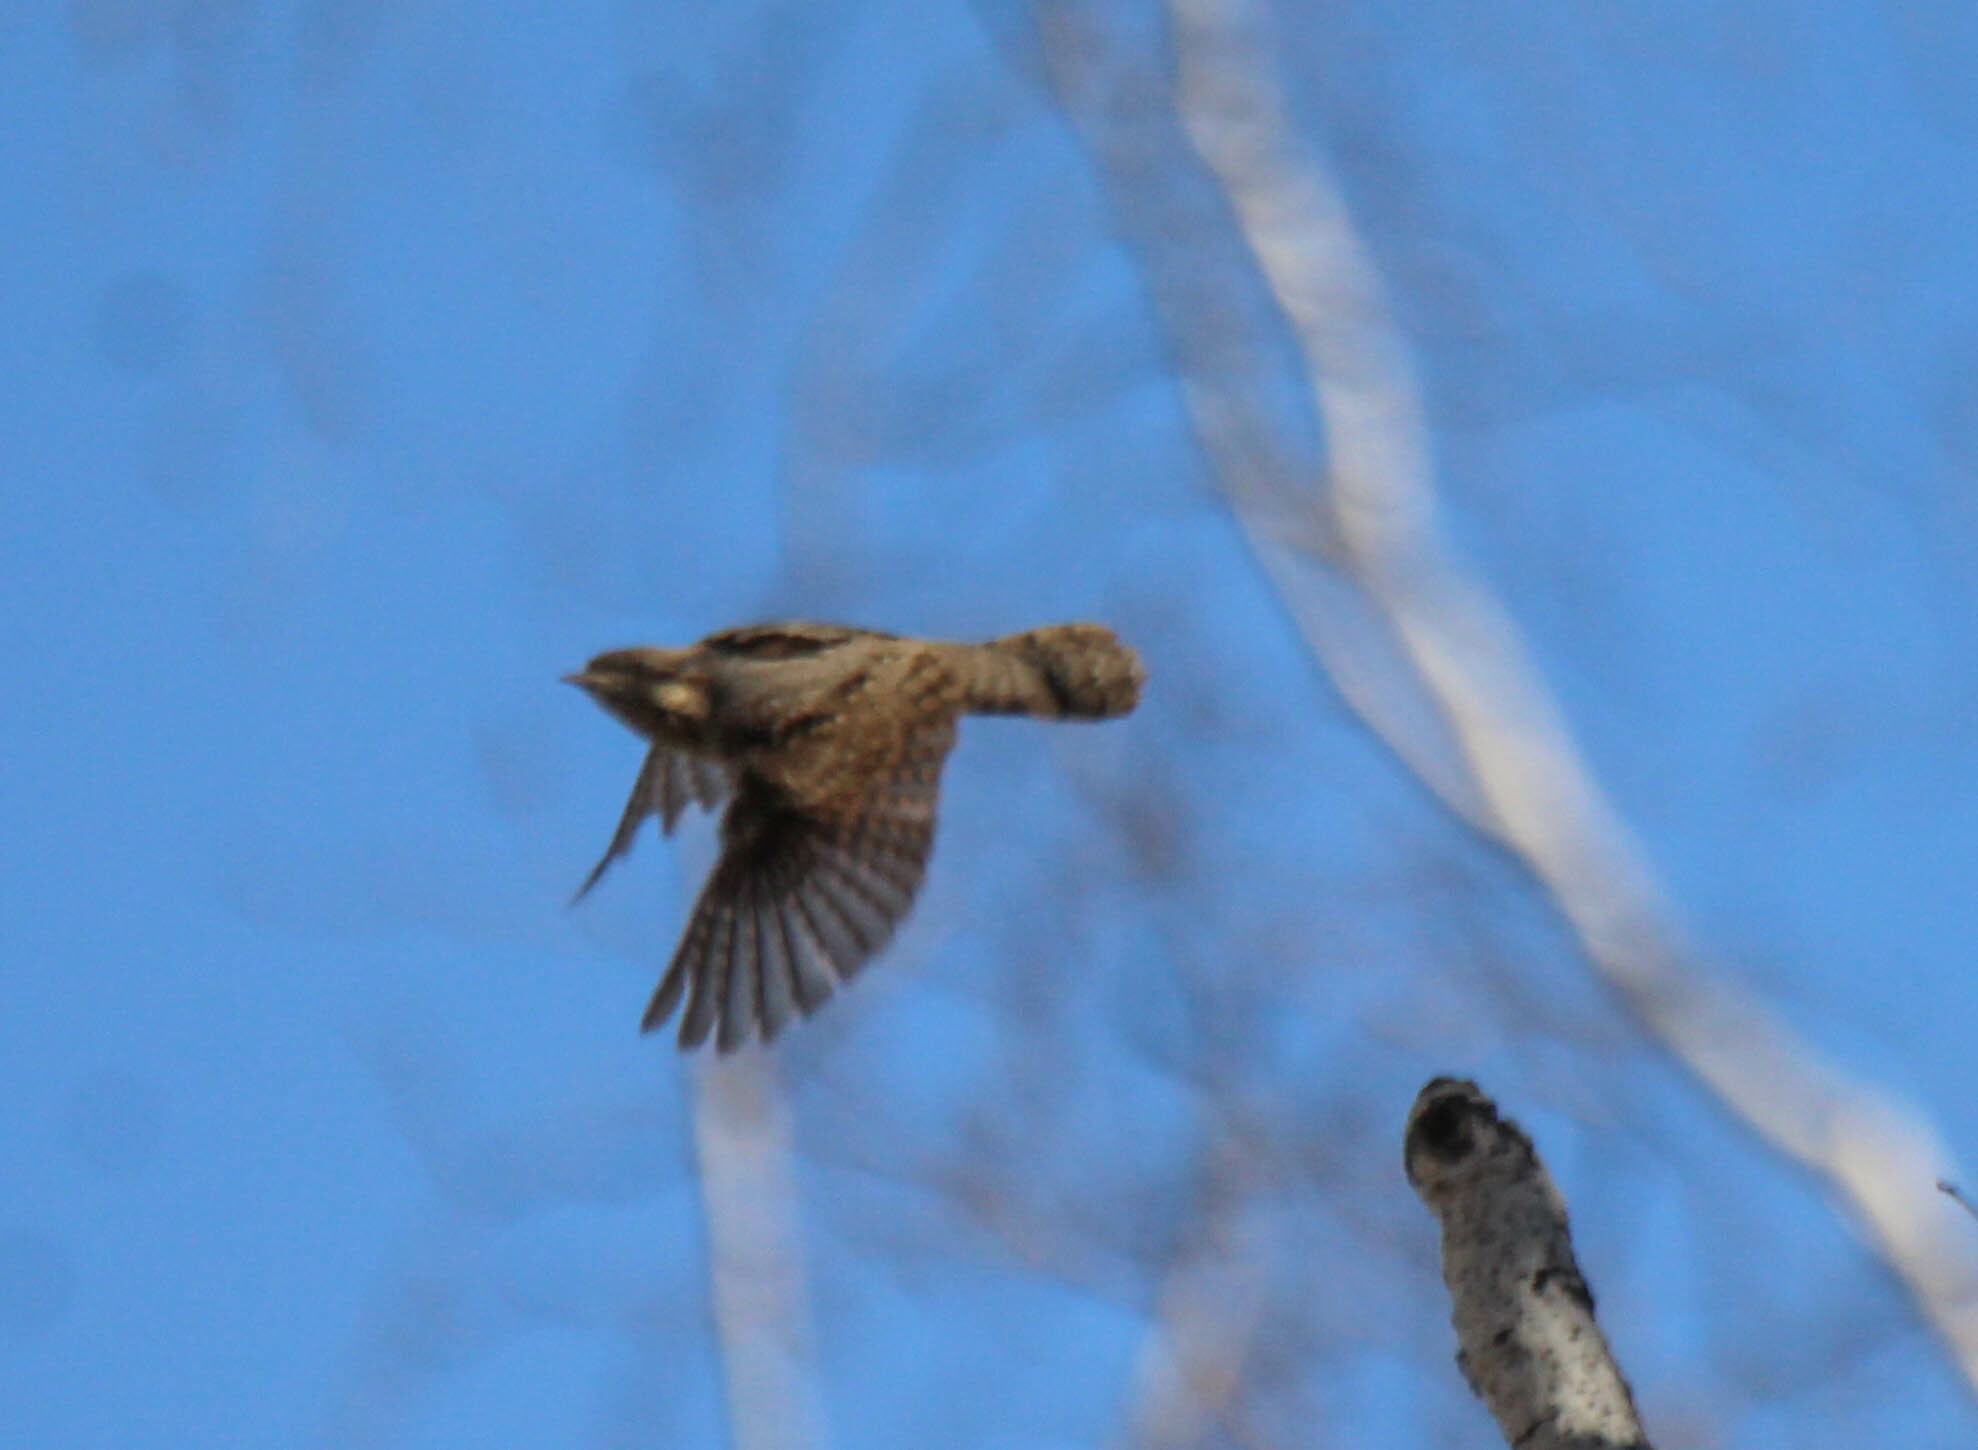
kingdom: Animalia
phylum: Chordata
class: Aves
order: Piciformes
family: Picidae
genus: Jynx
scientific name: Jynx torquilla
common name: Eurasian wryneck
